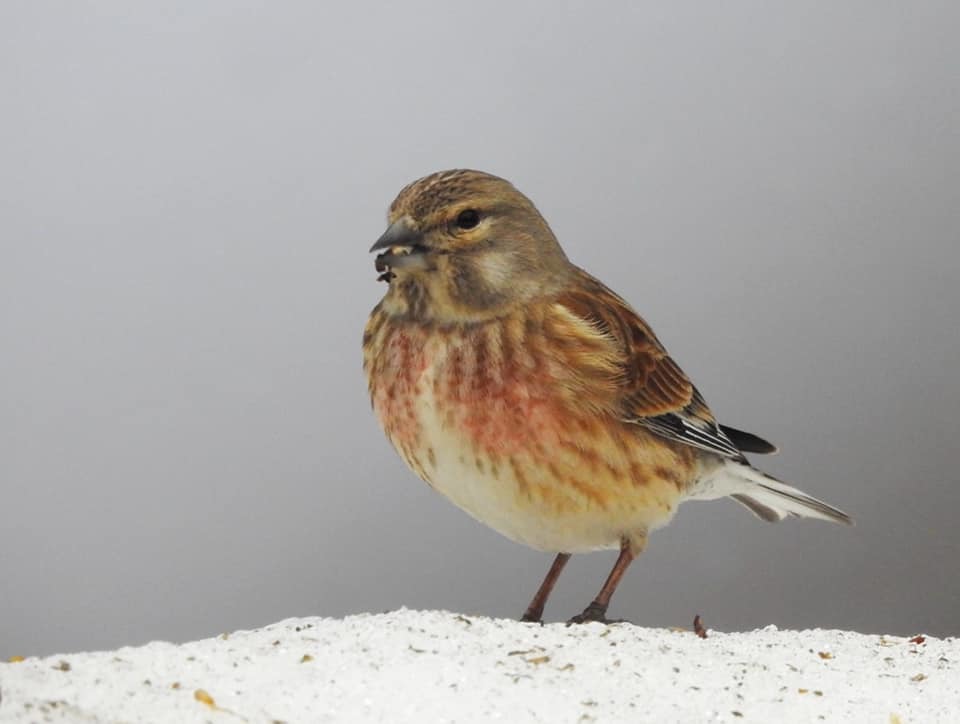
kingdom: Animalia
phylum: Chordata
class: Aves
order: Passeriformes
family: Fringillidae
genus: Linaria
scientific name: Linaria cannabina
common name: Common linnet
